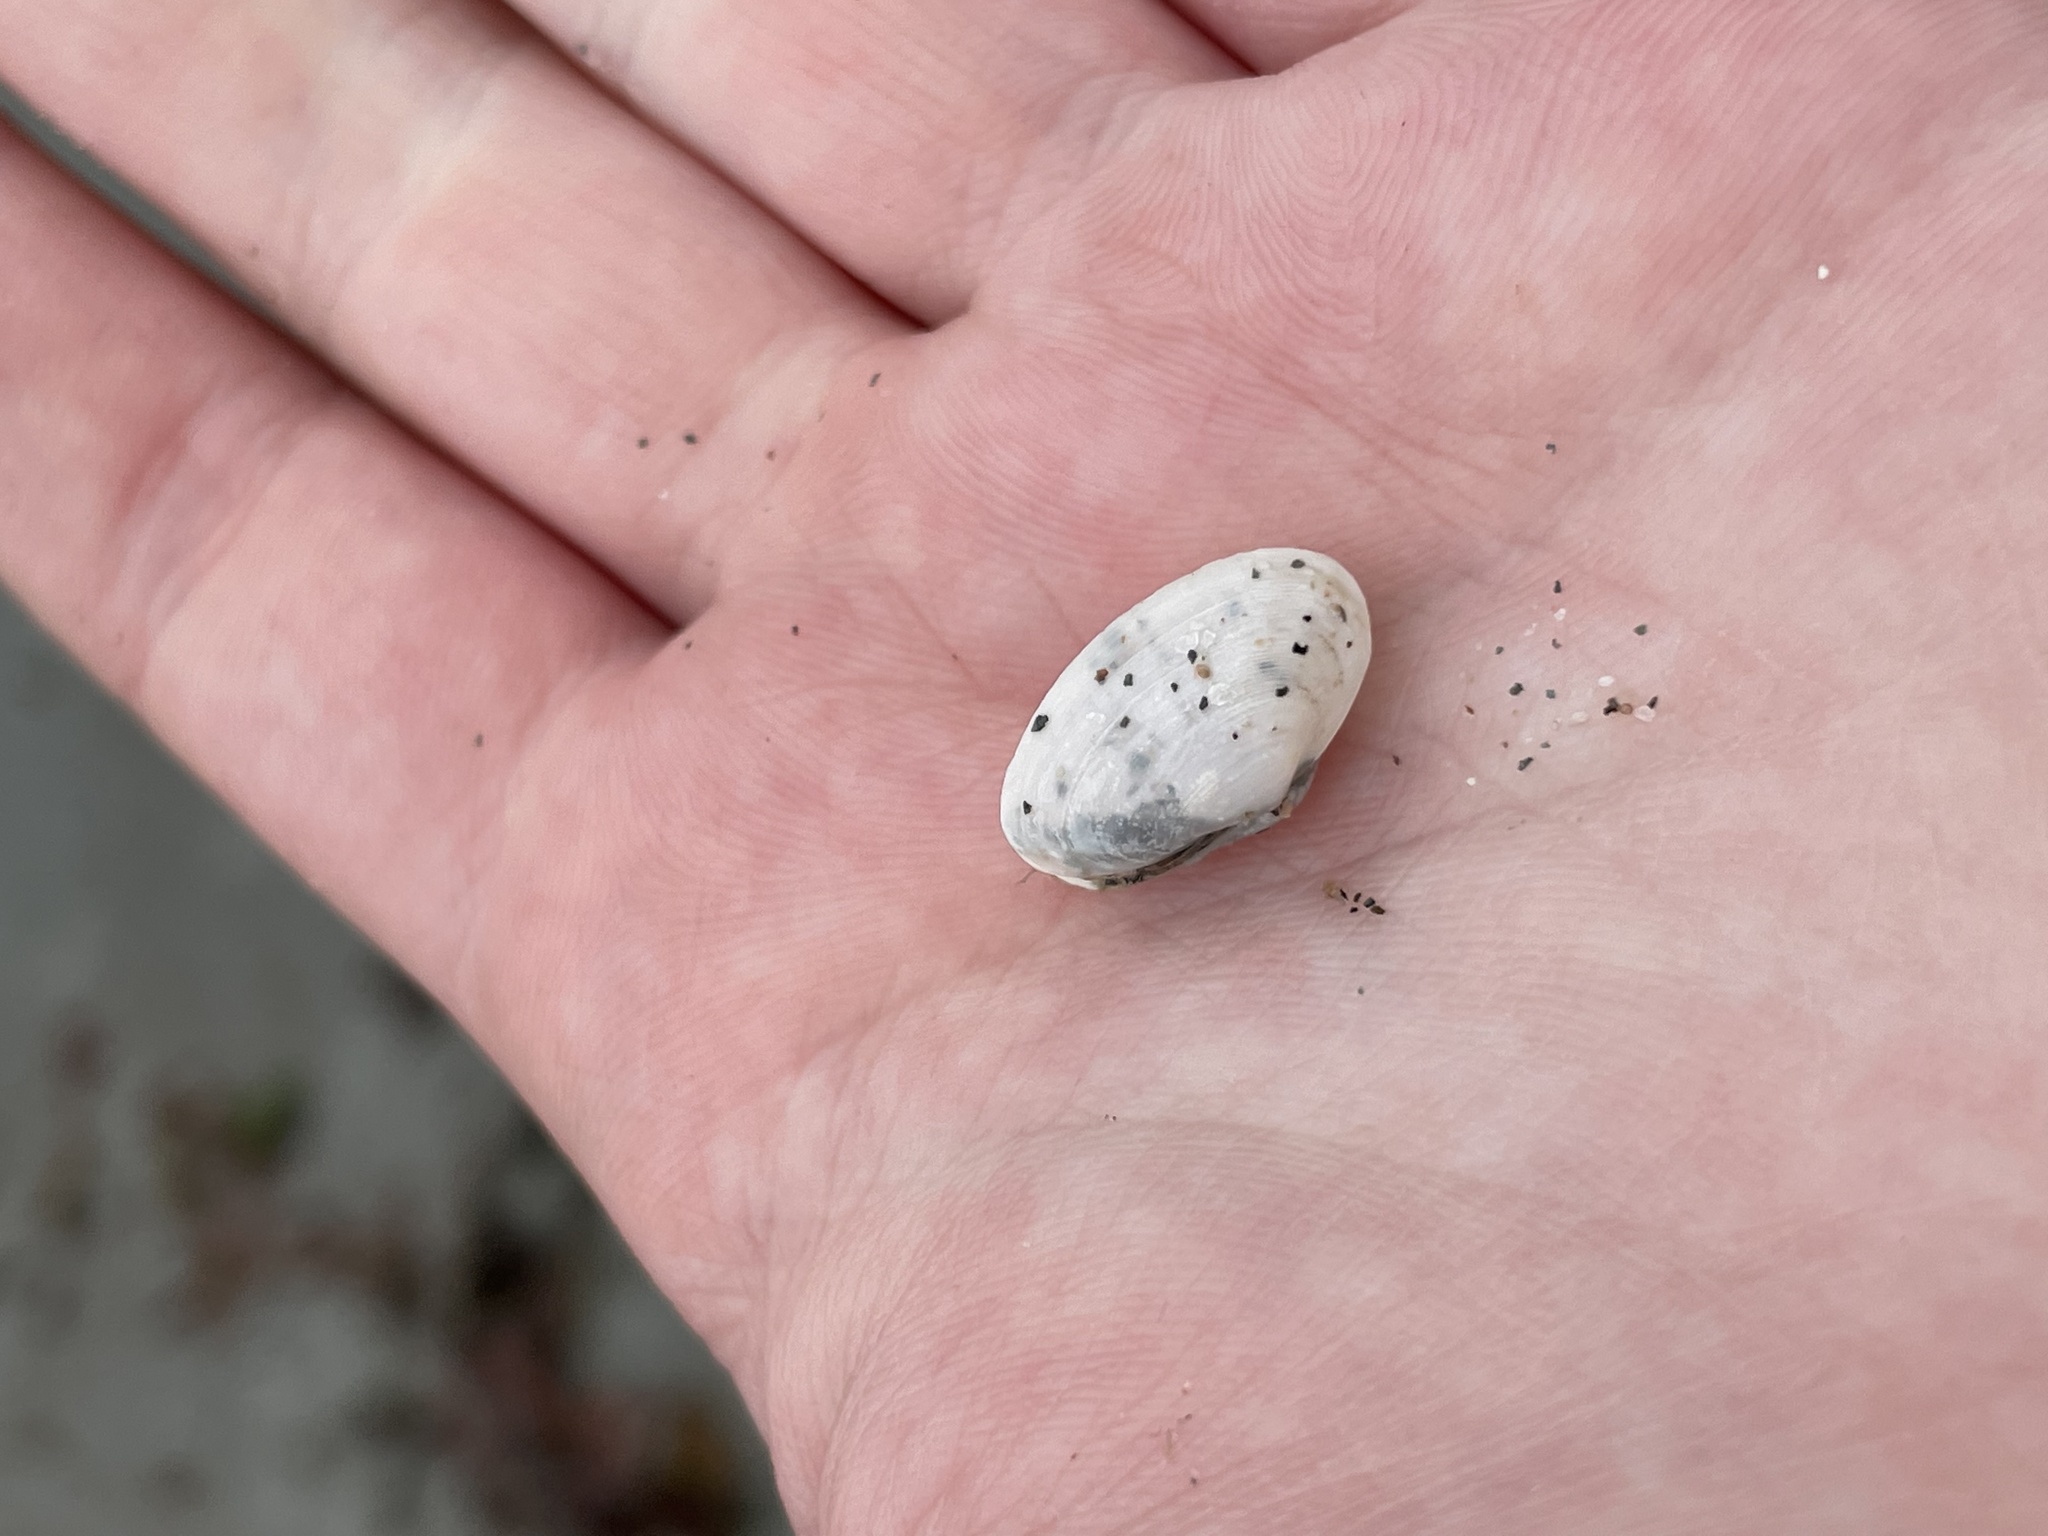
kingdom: Animalia
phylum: Mollusca
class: Bivalvia
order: Myida
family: Myidae
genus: Mya
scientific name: Mya arenaria
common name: Soft-shelled clam
